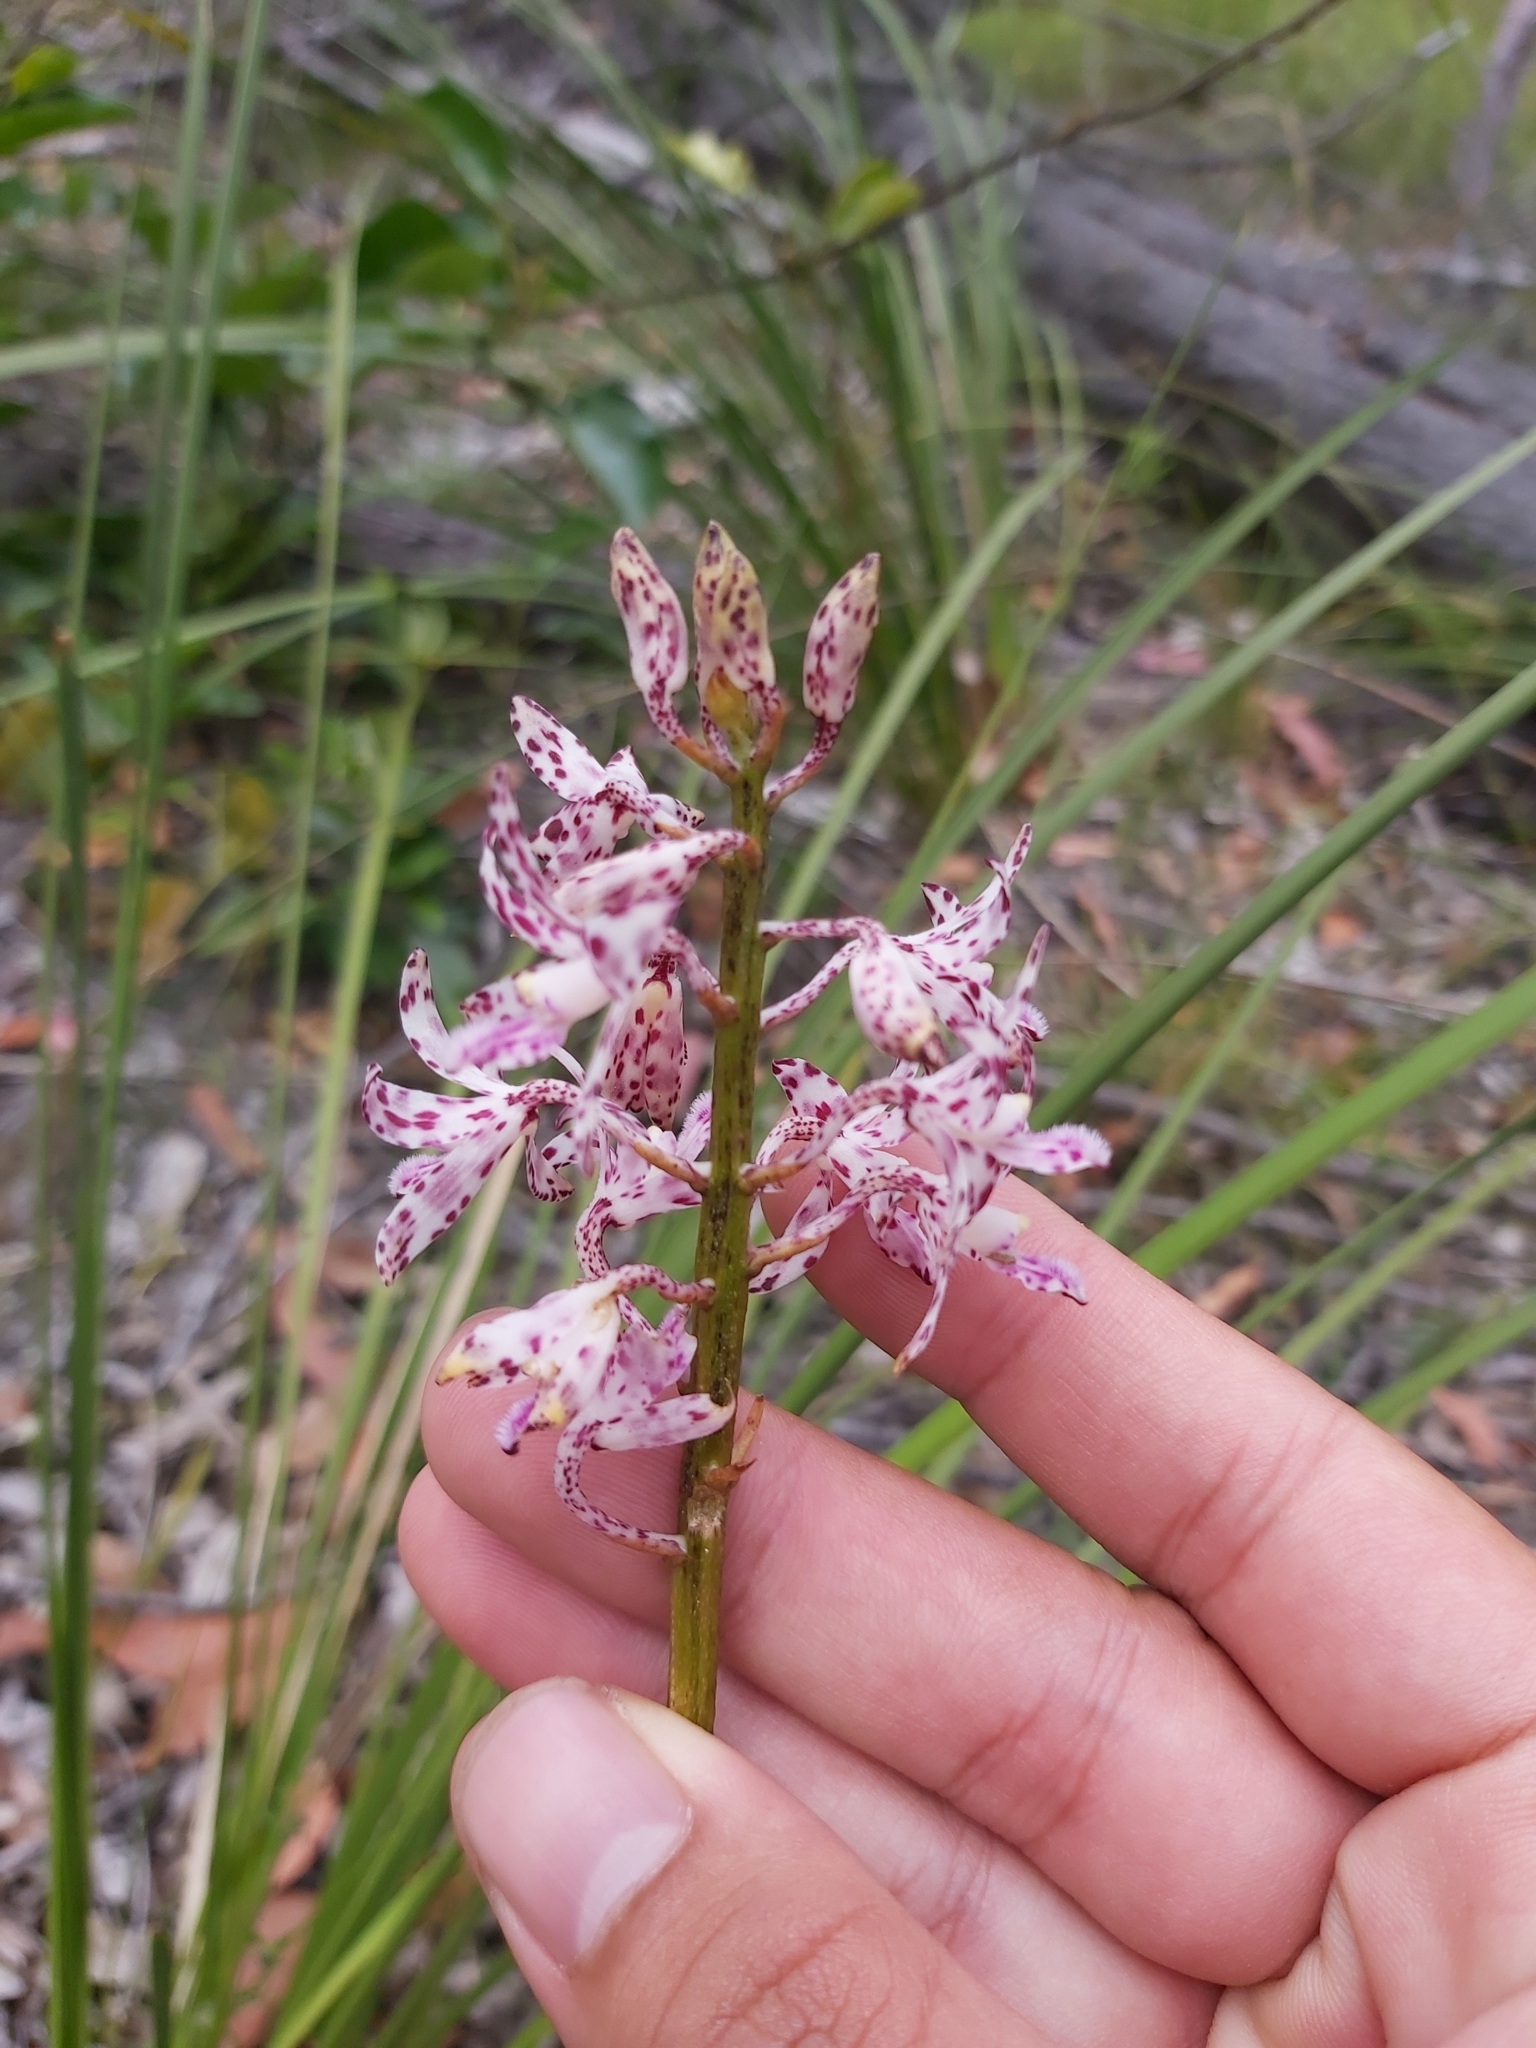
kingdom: Plantae
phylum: Tracheophyta
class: Liliopsida
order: Asparagales
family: Orchidaceae
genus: Dipodium
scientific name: Dipodium variegatum
